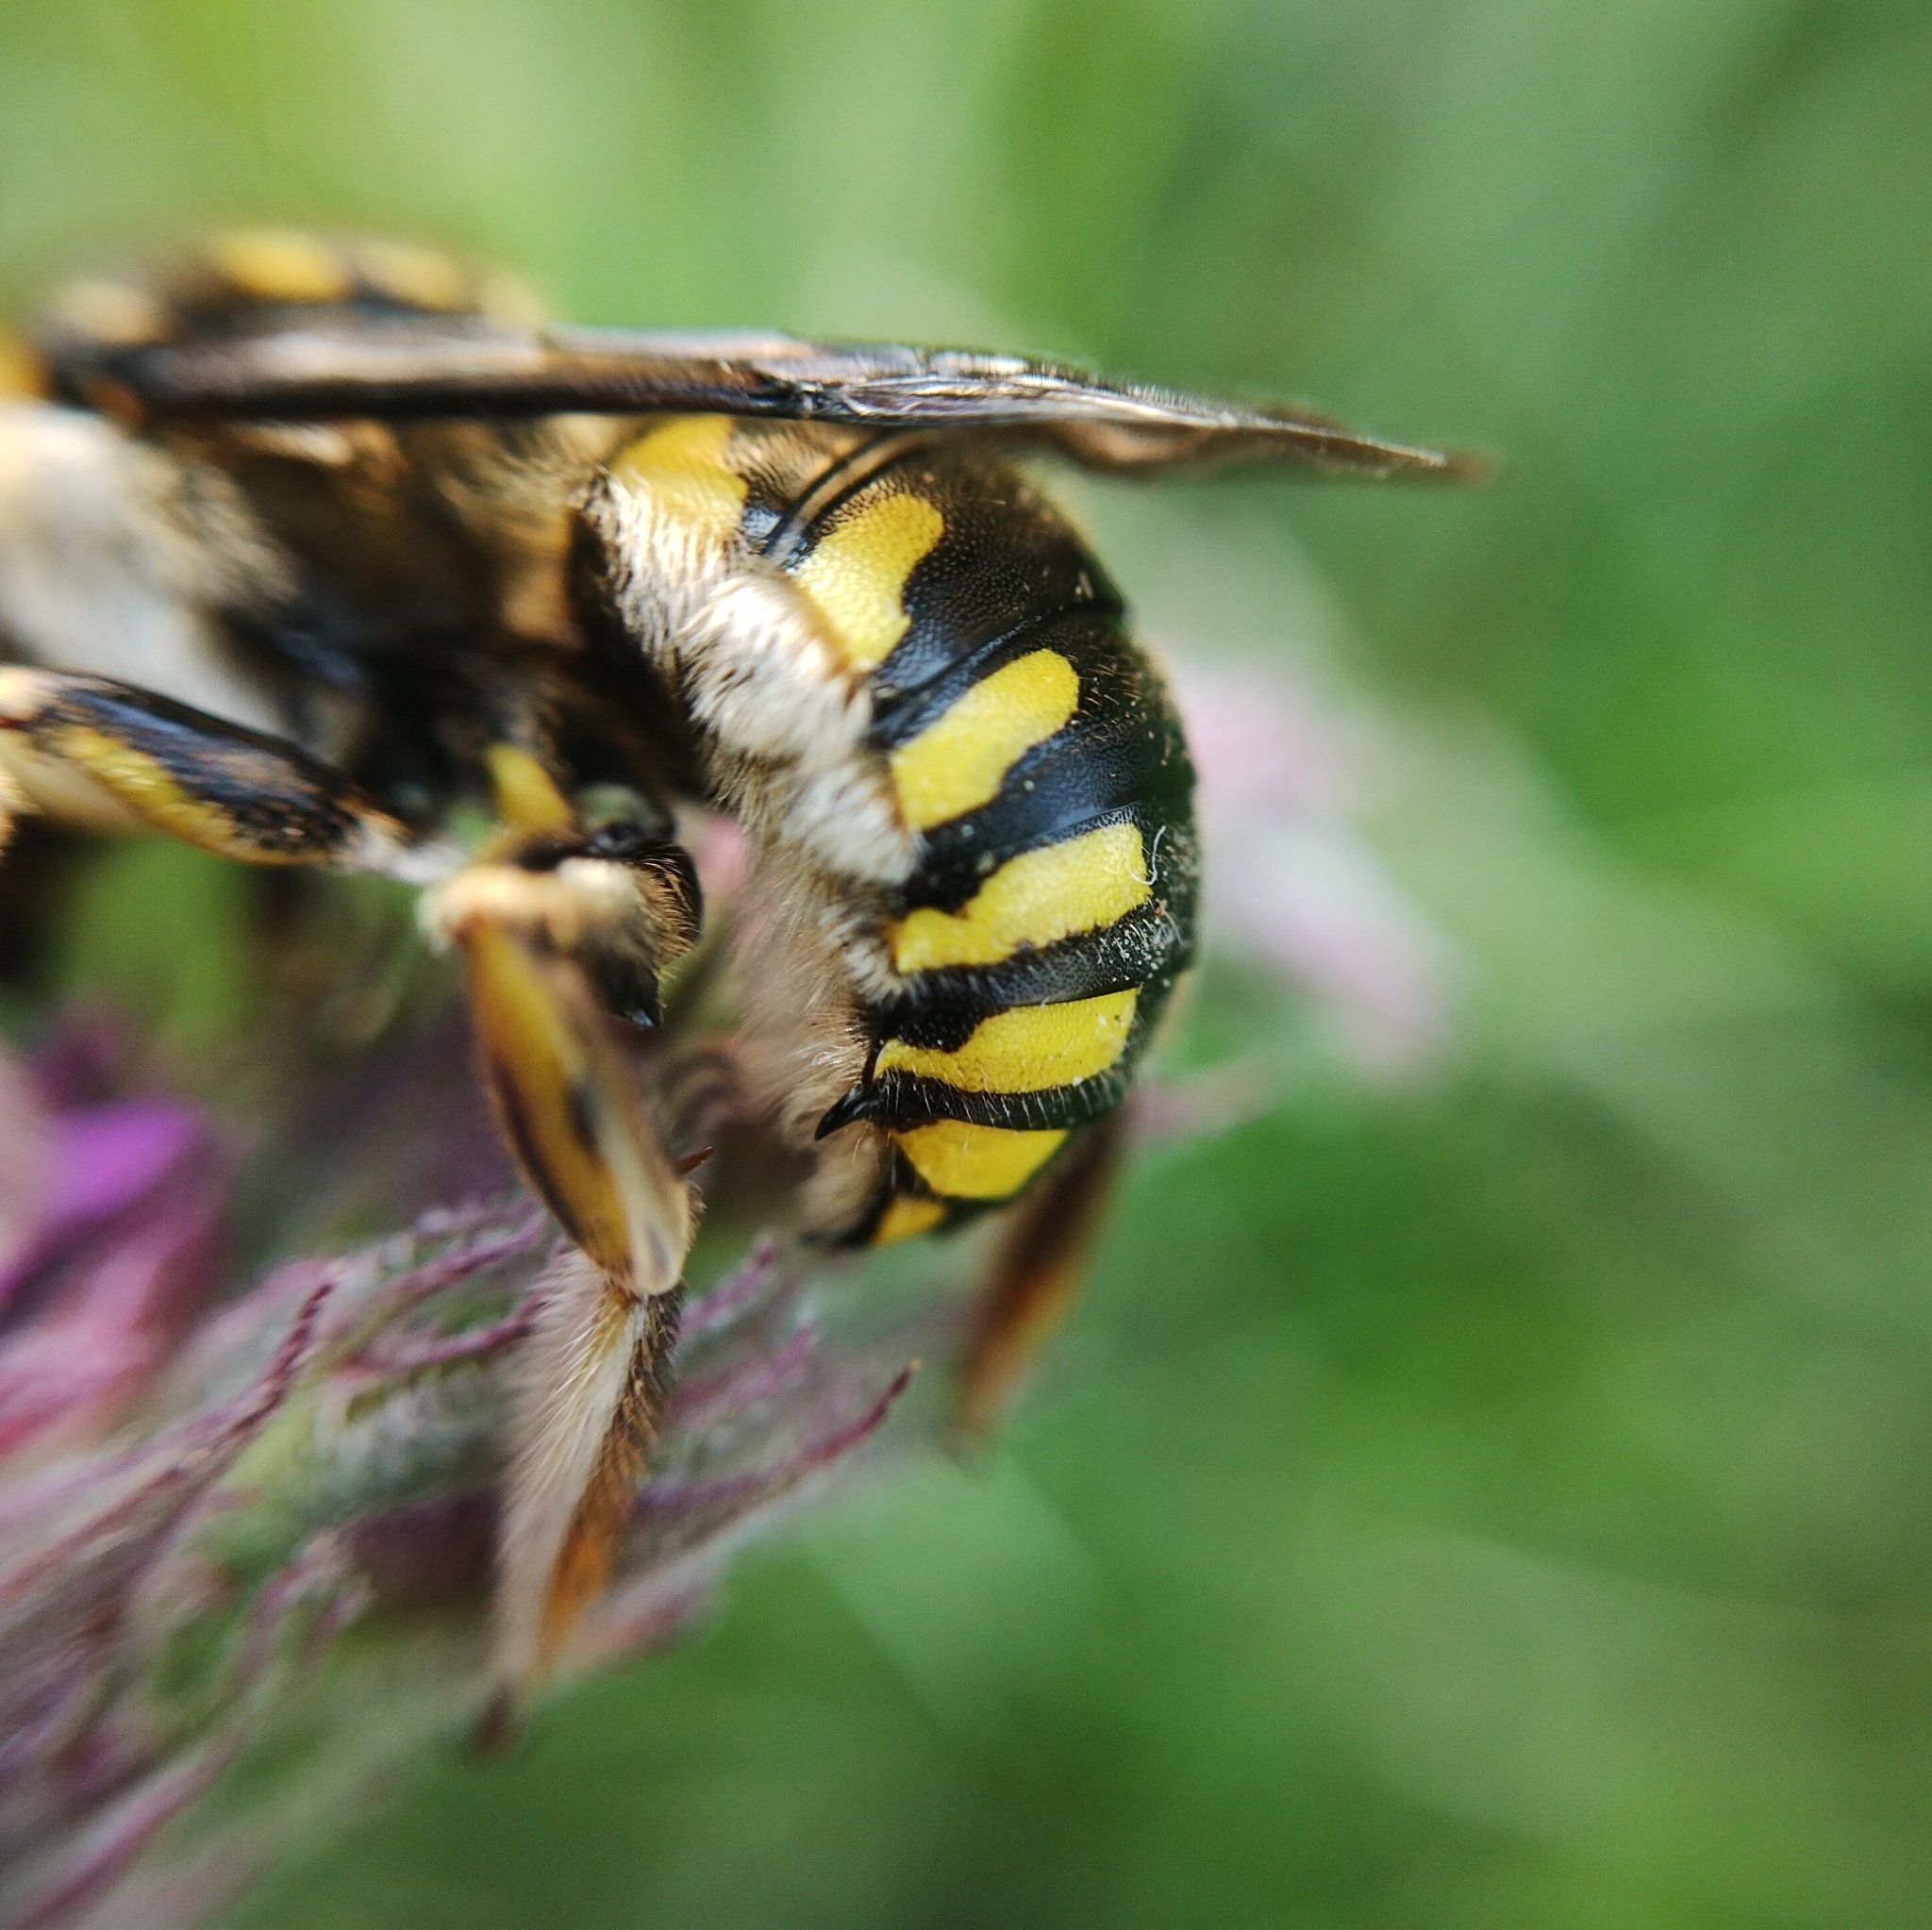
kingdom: Animalia
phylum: Arthropoda
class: Insecta
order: Hymenoptera
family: Megachilidae
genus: Anthidium
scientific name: Anthidium florentinum
